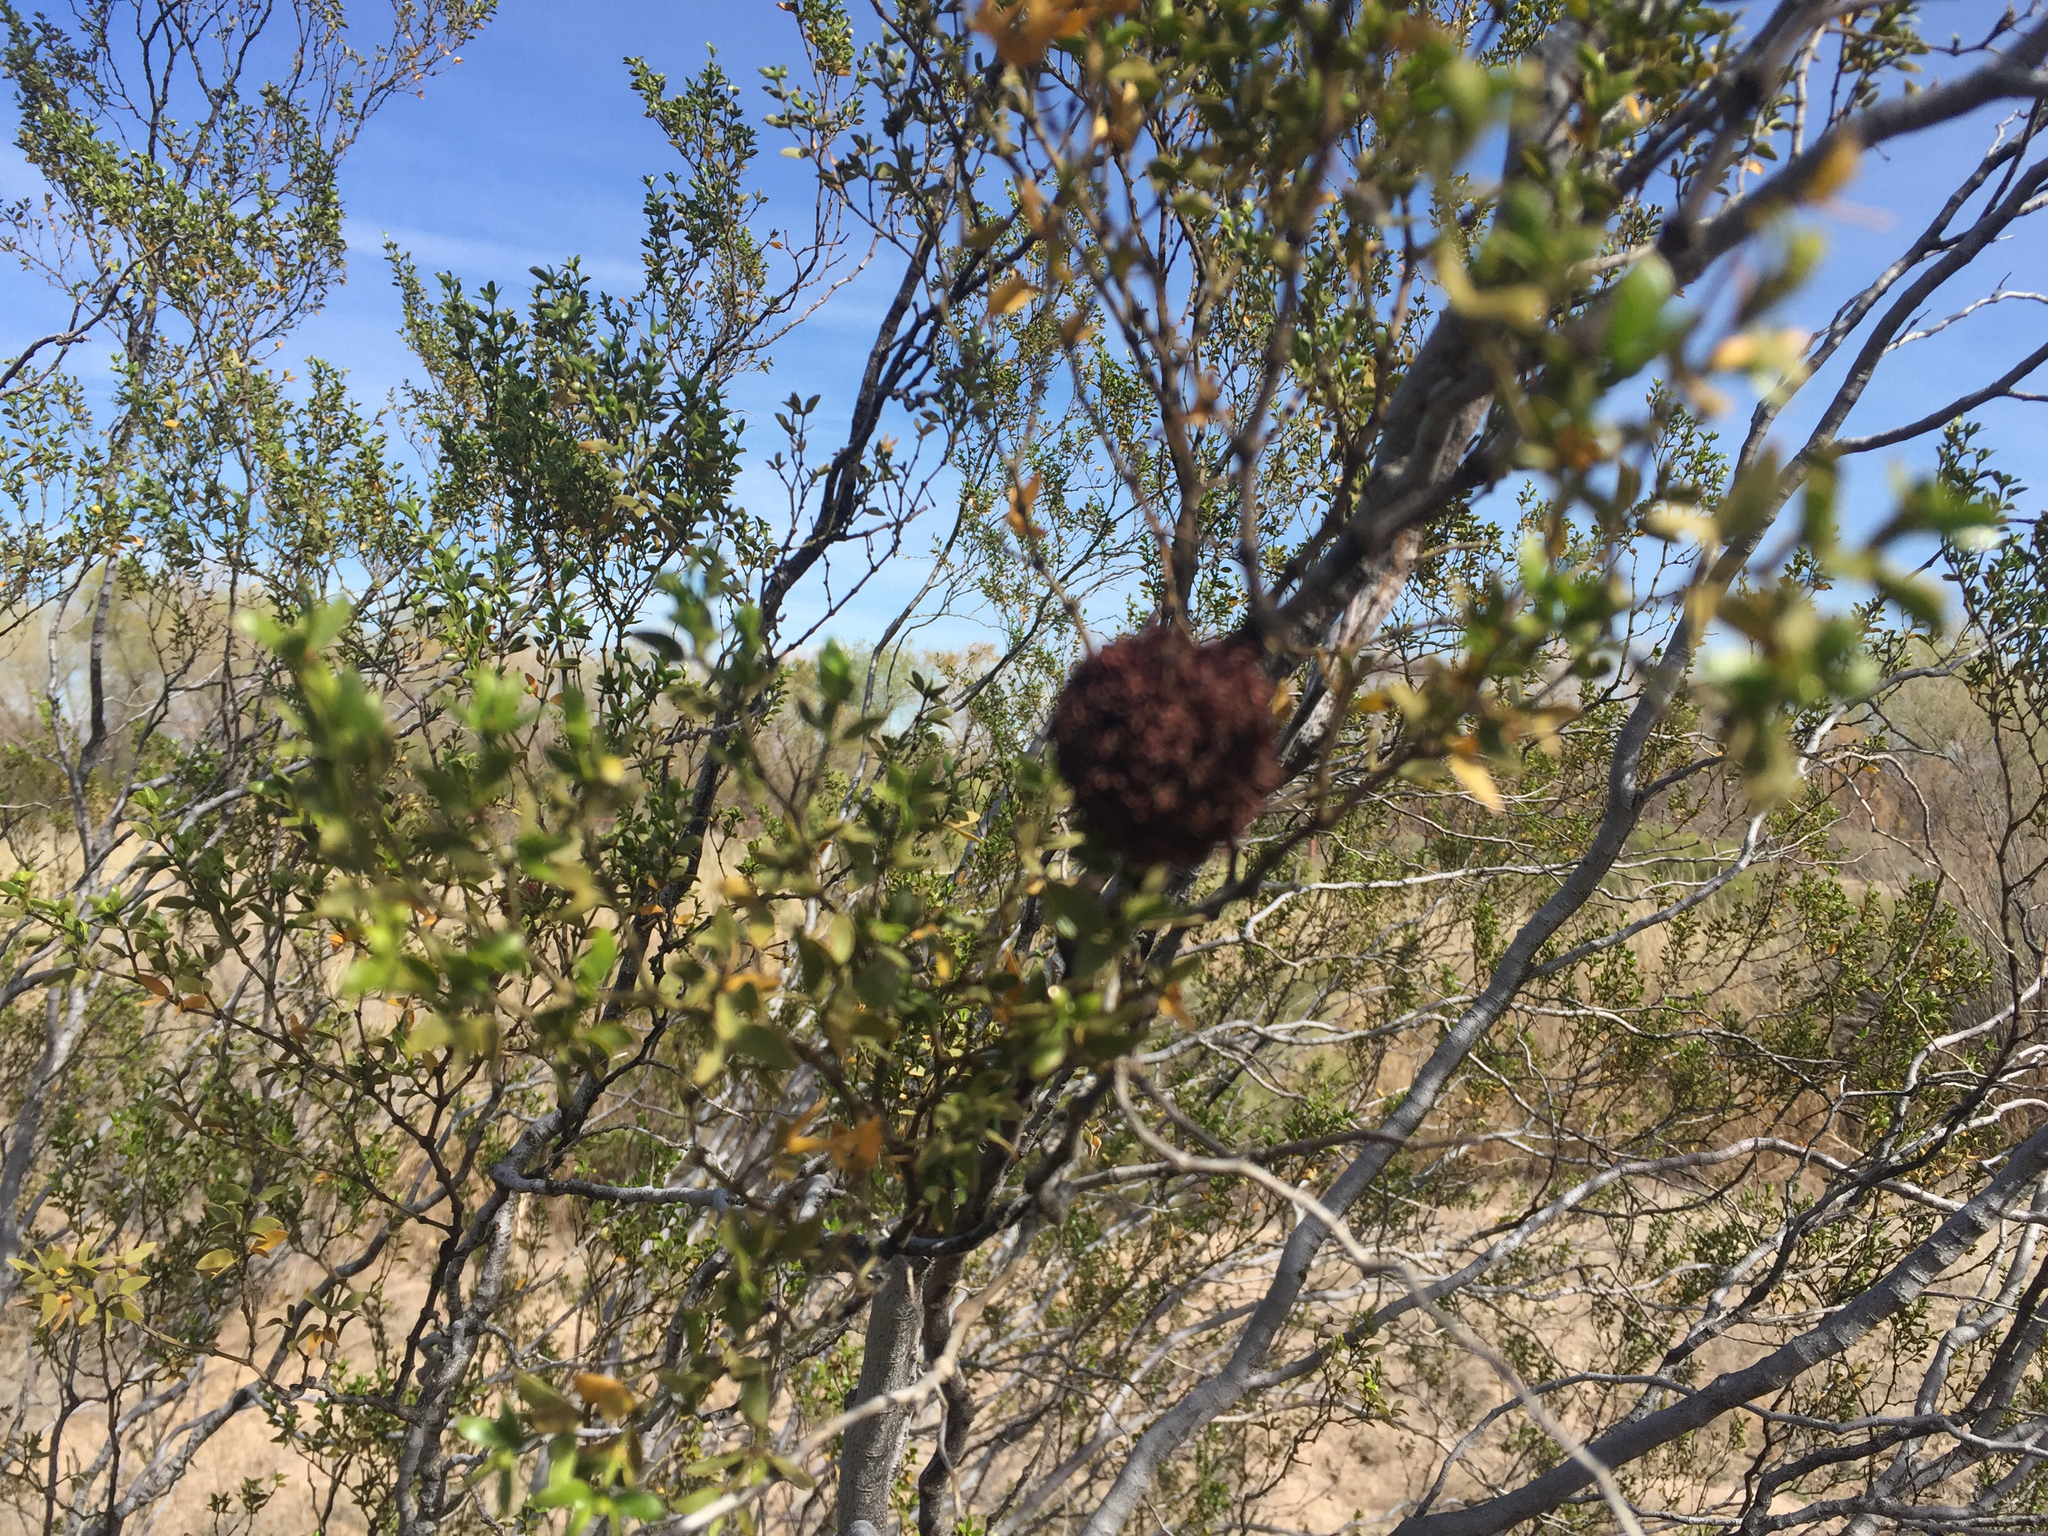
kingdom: Animalia
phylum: Arthropoda
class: Insecta
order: Diptera
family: Cecidomyiidae
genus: Asphondylia
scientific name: Asphondylia auripila
